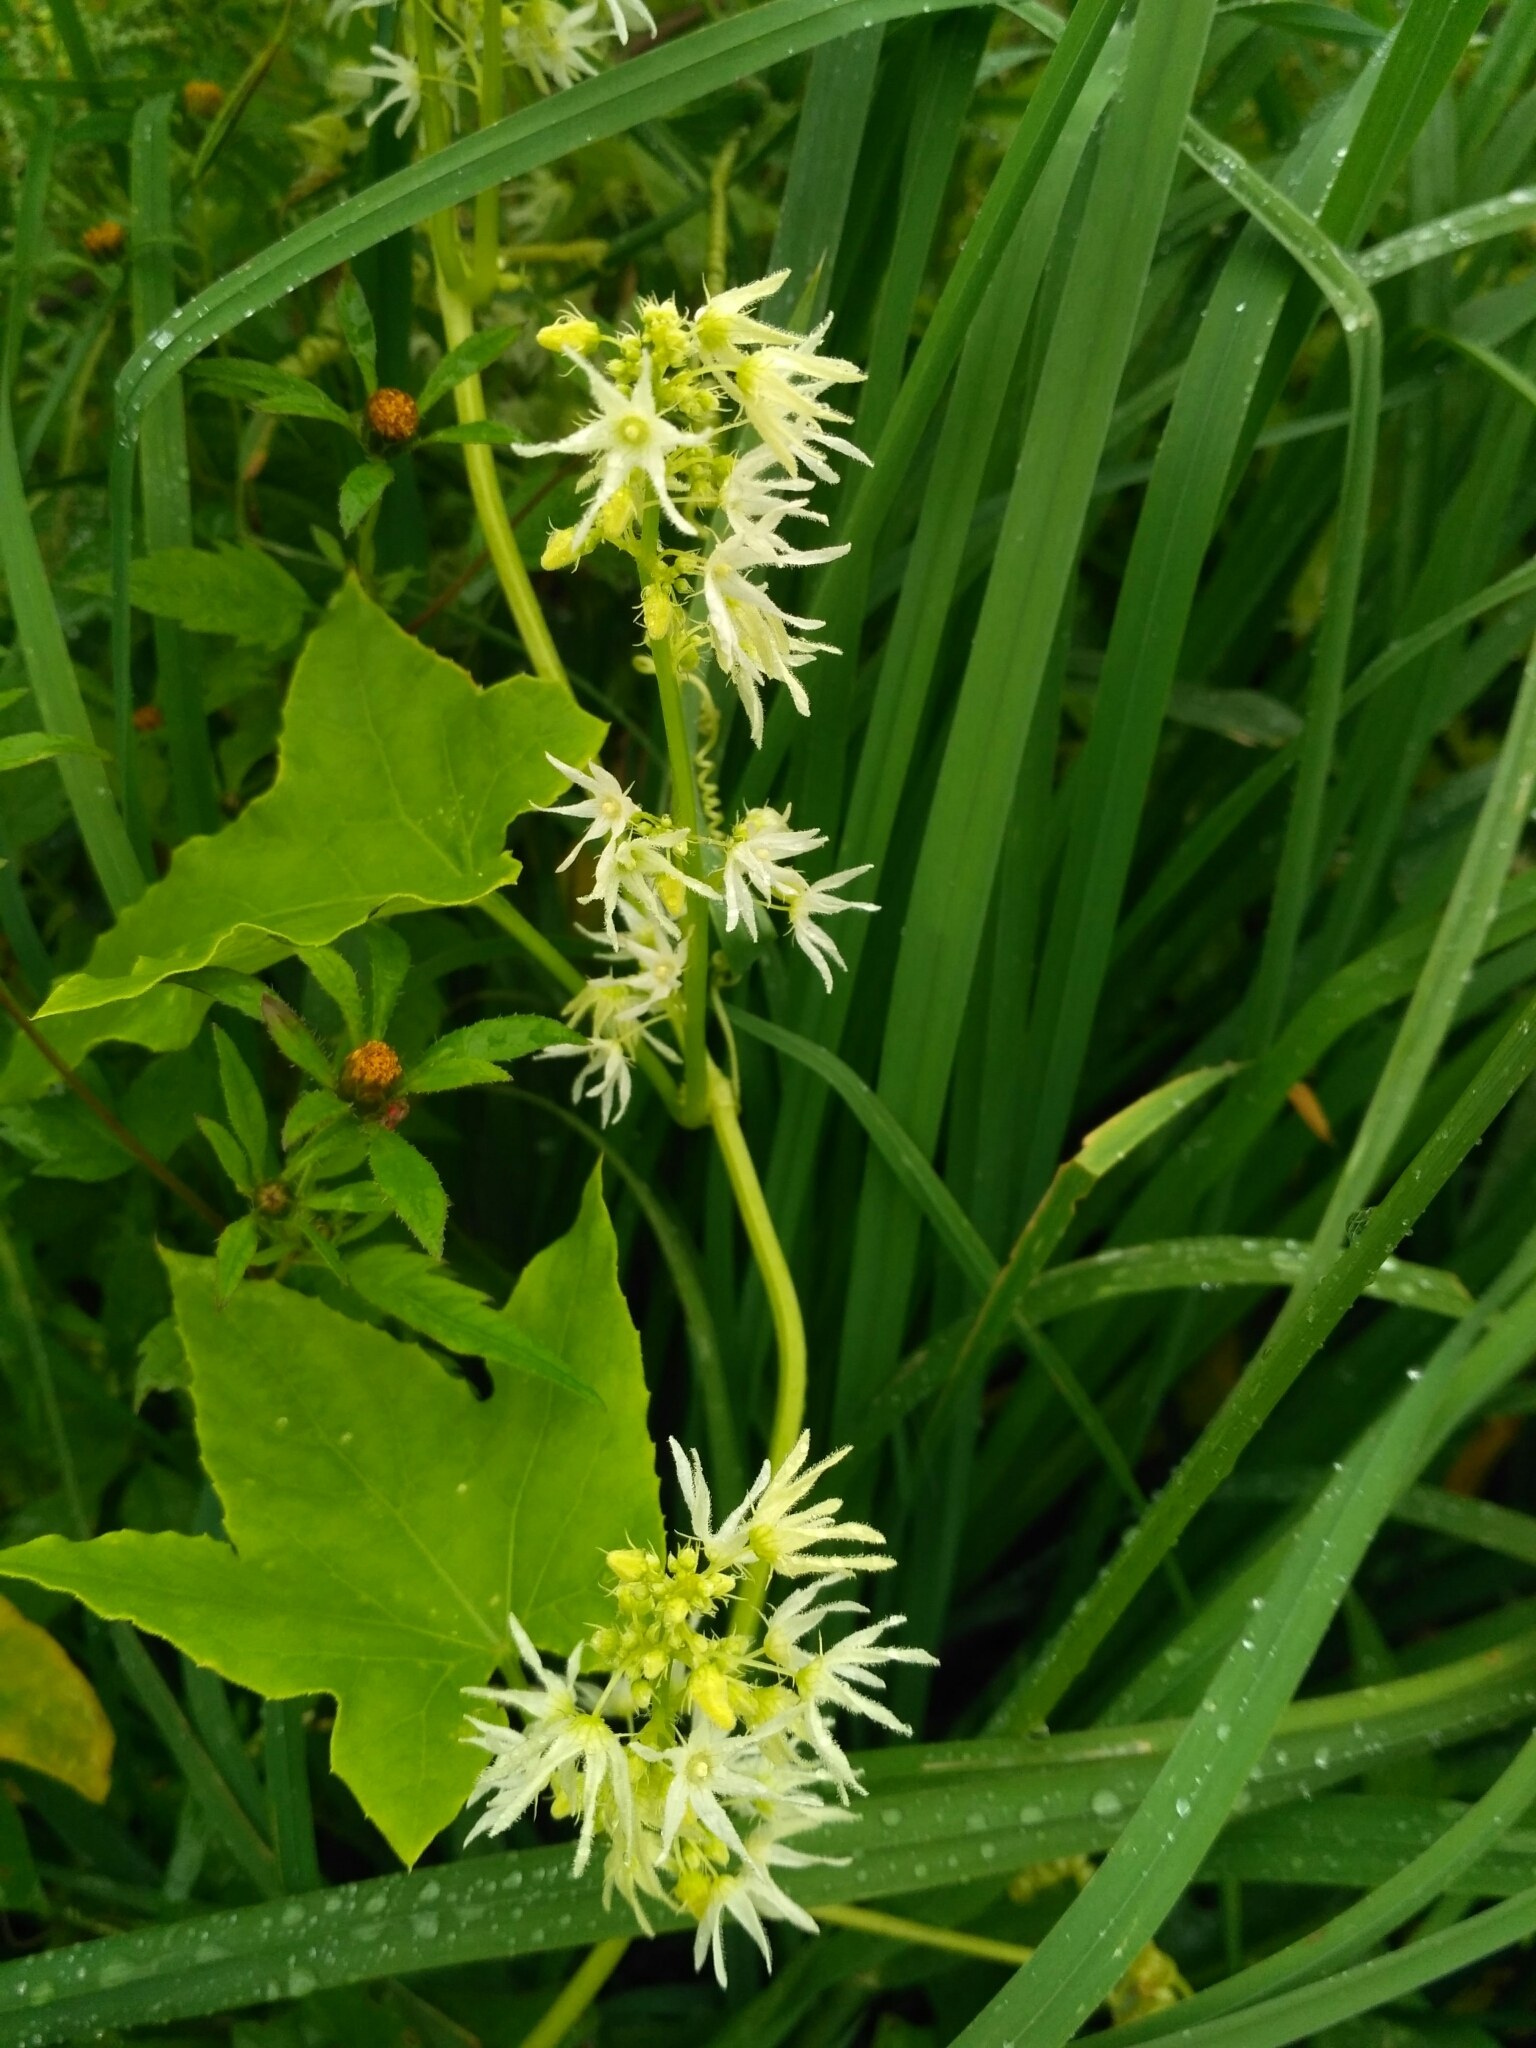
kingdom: Plantae
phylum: Tracheophyta
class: Magnoliopsida
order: Cucurbitales
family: Cucurbitaceae
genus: Echinocystis
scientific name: Echinocystis lobata
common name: Wild cucumber
